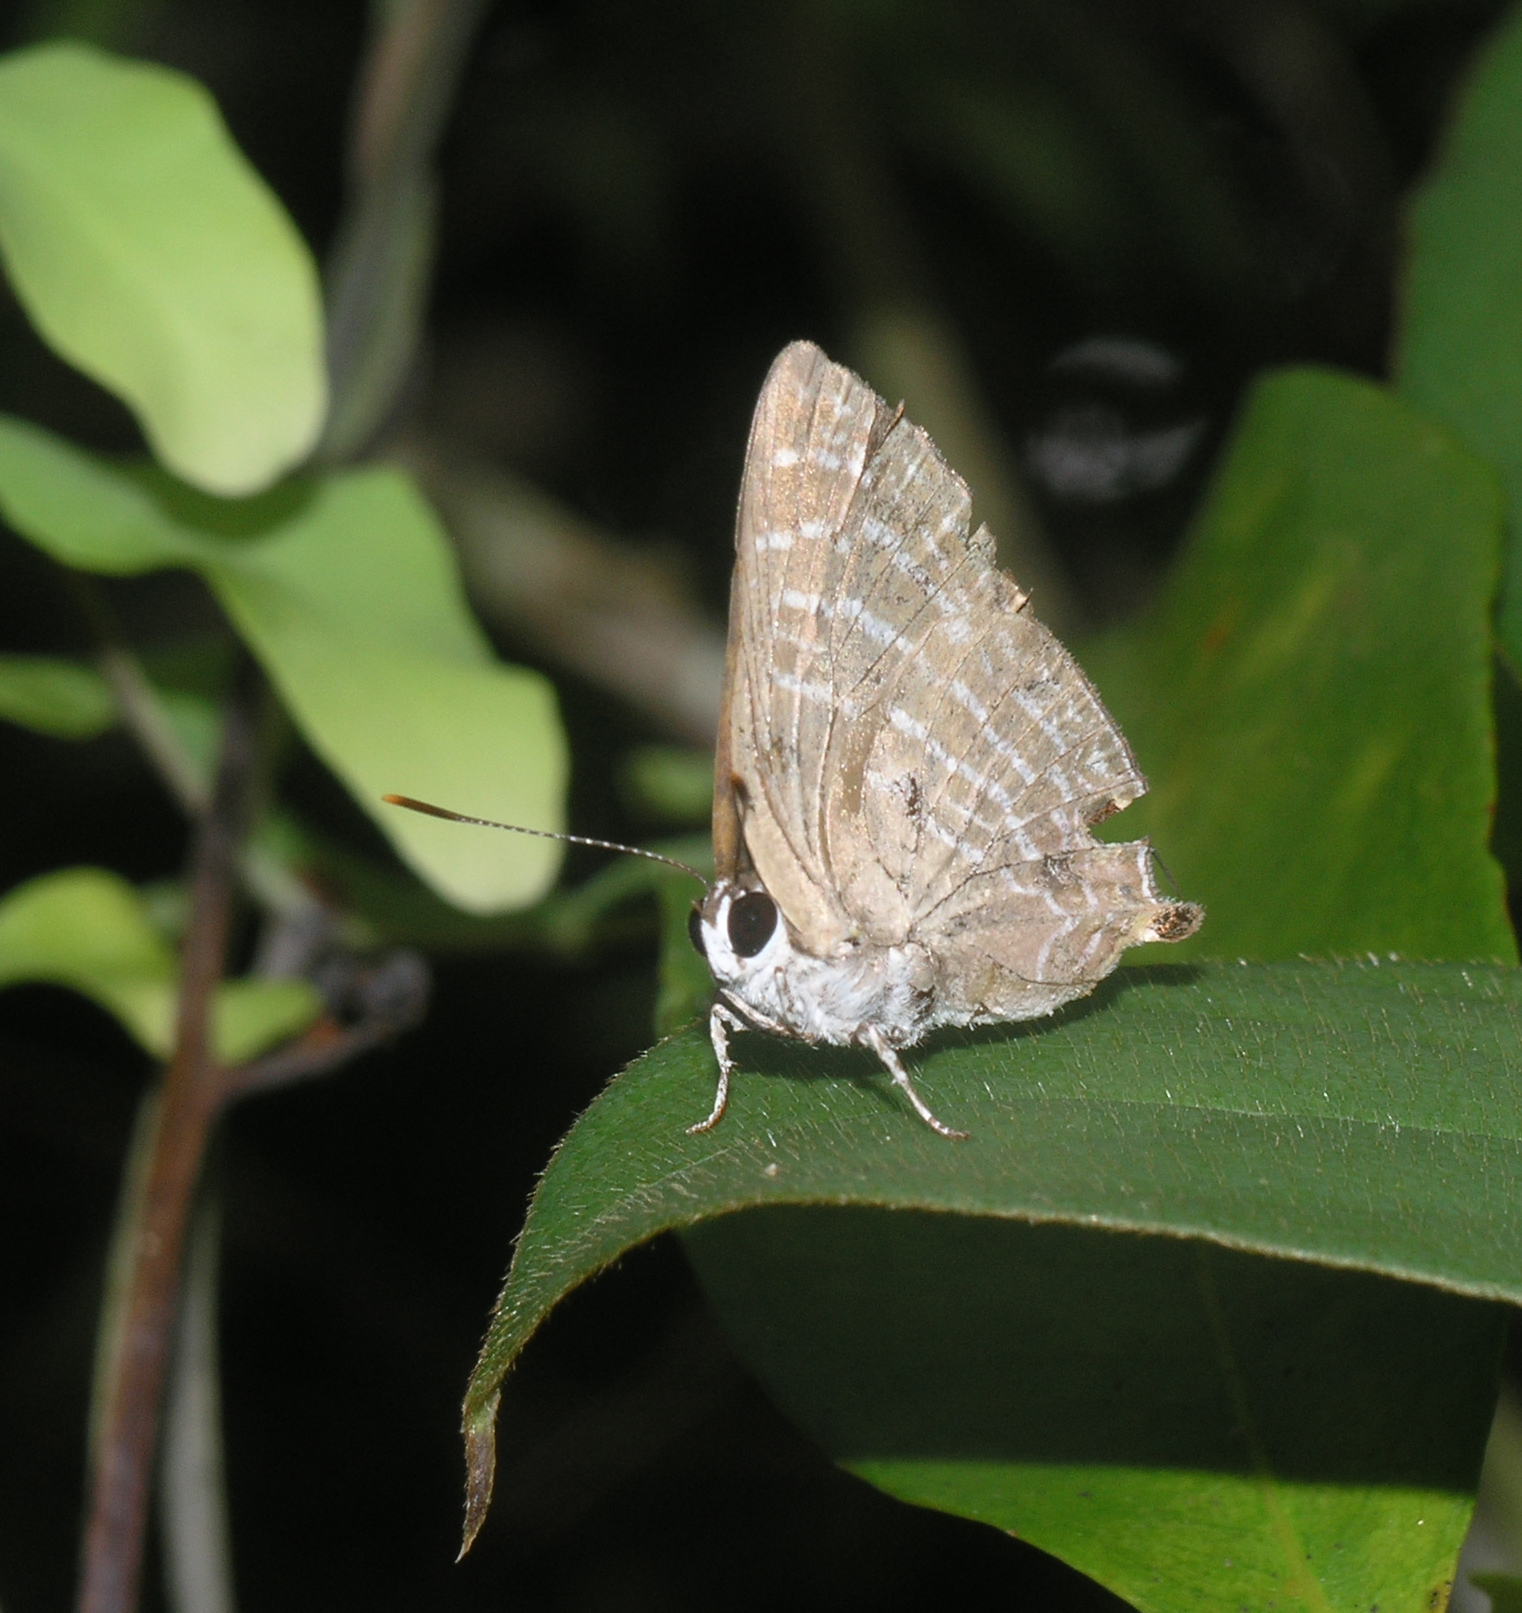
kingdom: Animalia
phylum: Arthropoda
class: Insecta
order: Lepidoptera
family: Lycaenidae
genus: Deudorix
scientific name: Deudorix
